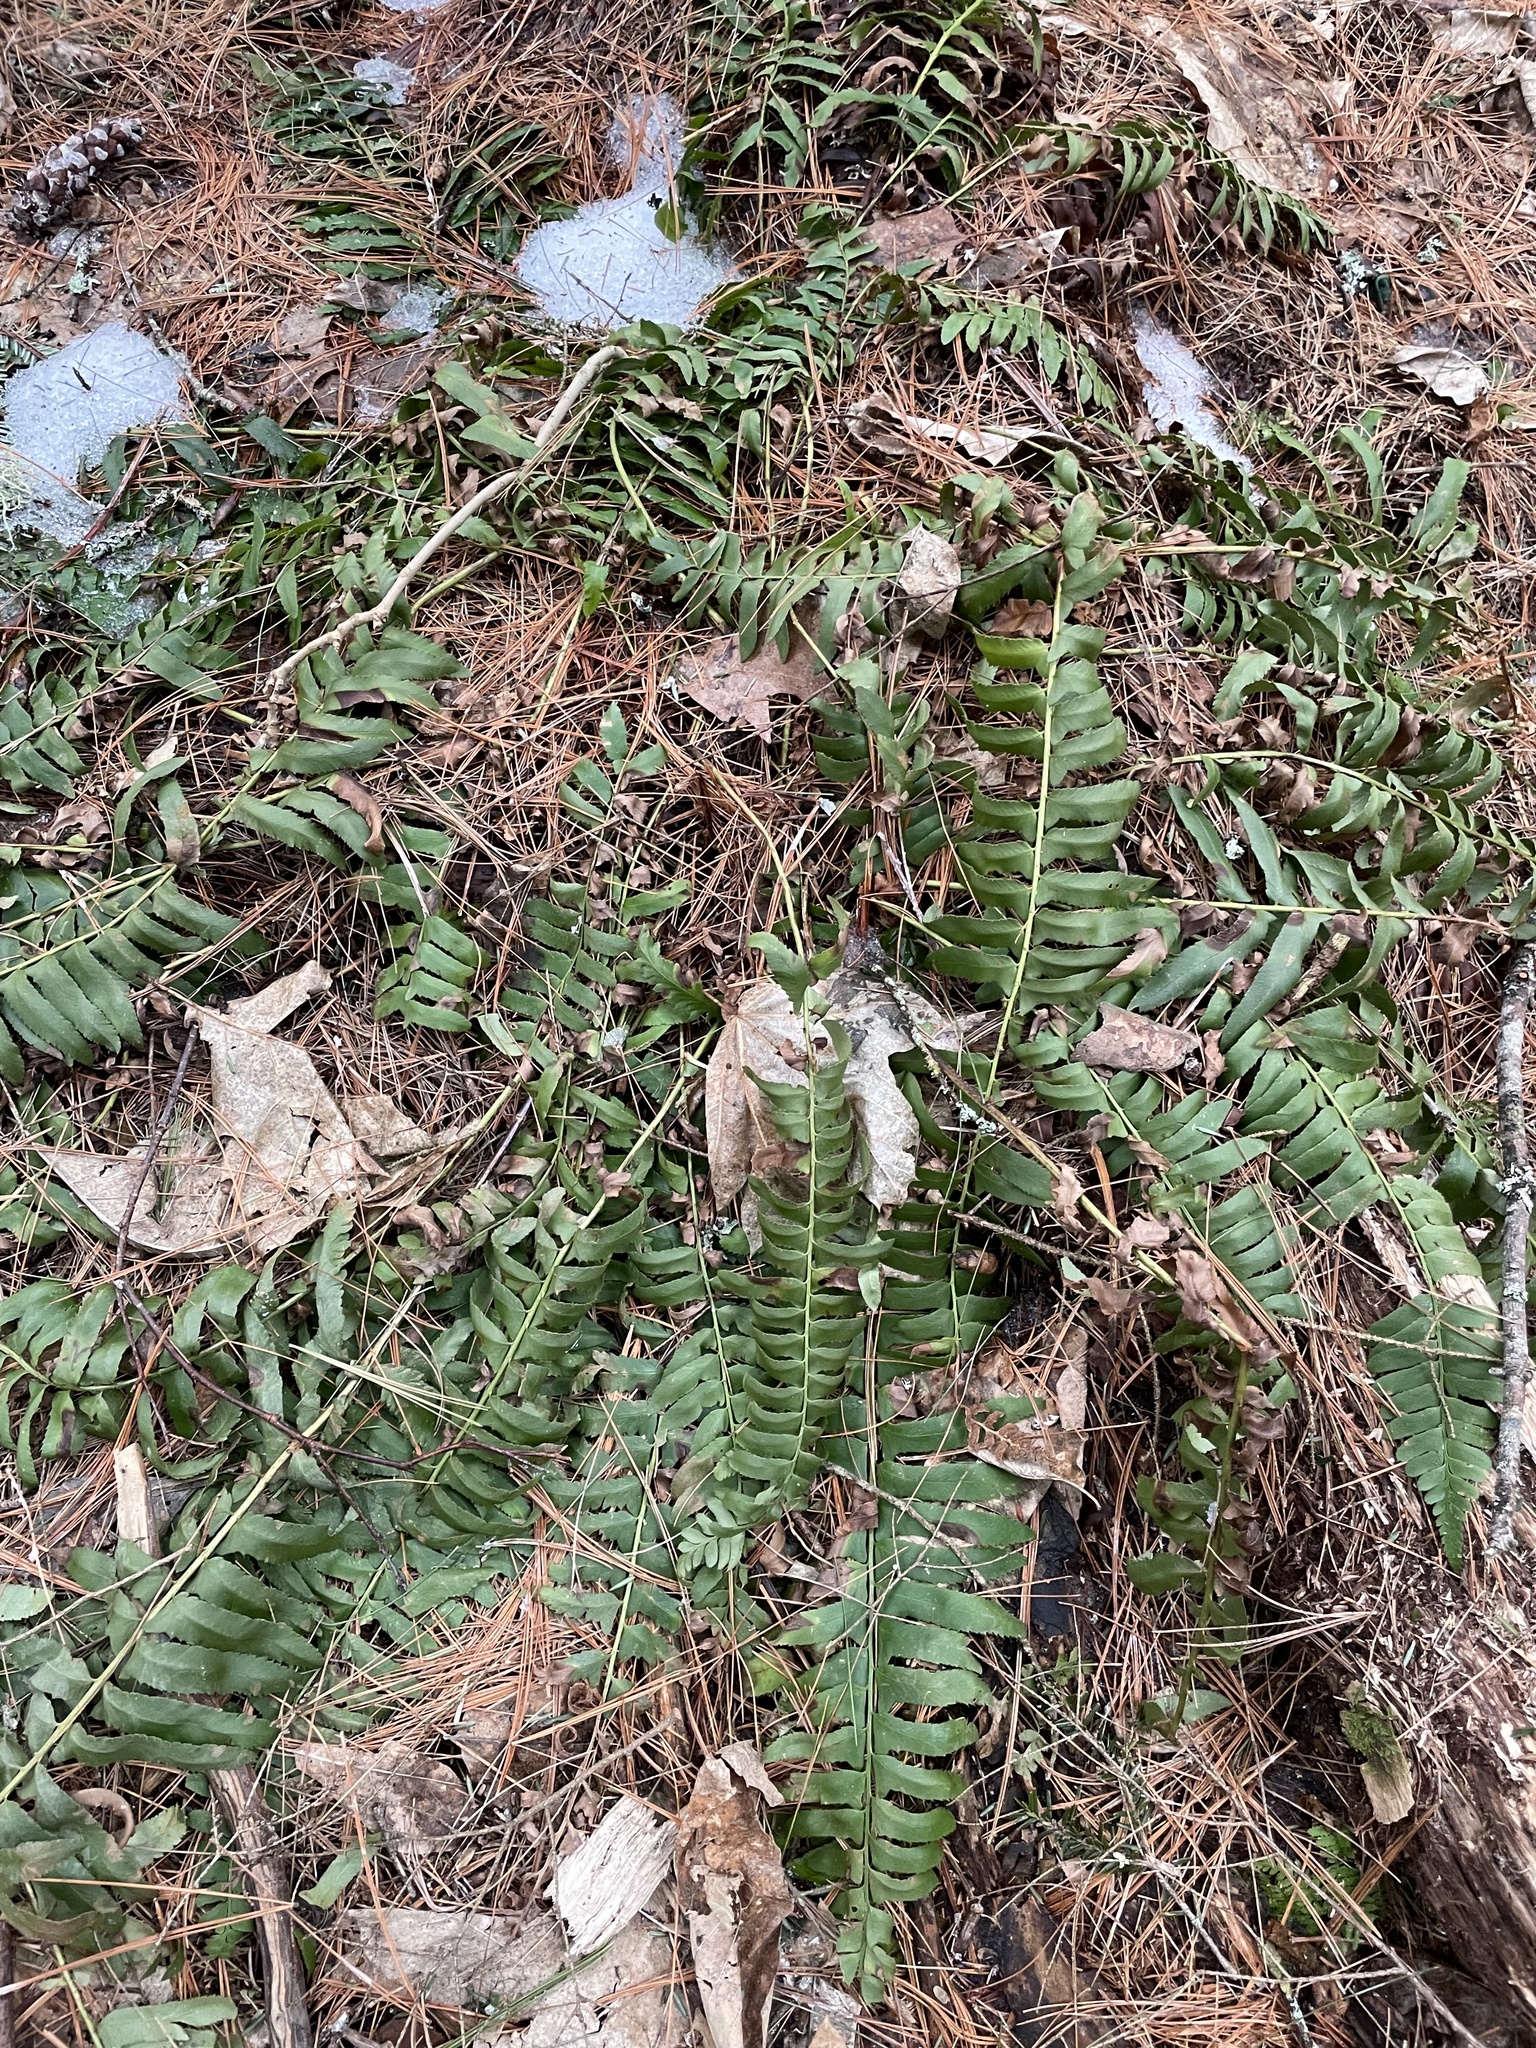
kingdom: Plantae
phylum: Tracheophyta
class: Polypodiopsida
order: Polypodiales
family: Dryopteridaceae
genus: Polystichum
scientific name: Polystichum acrostichoides
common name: Christmas fern
